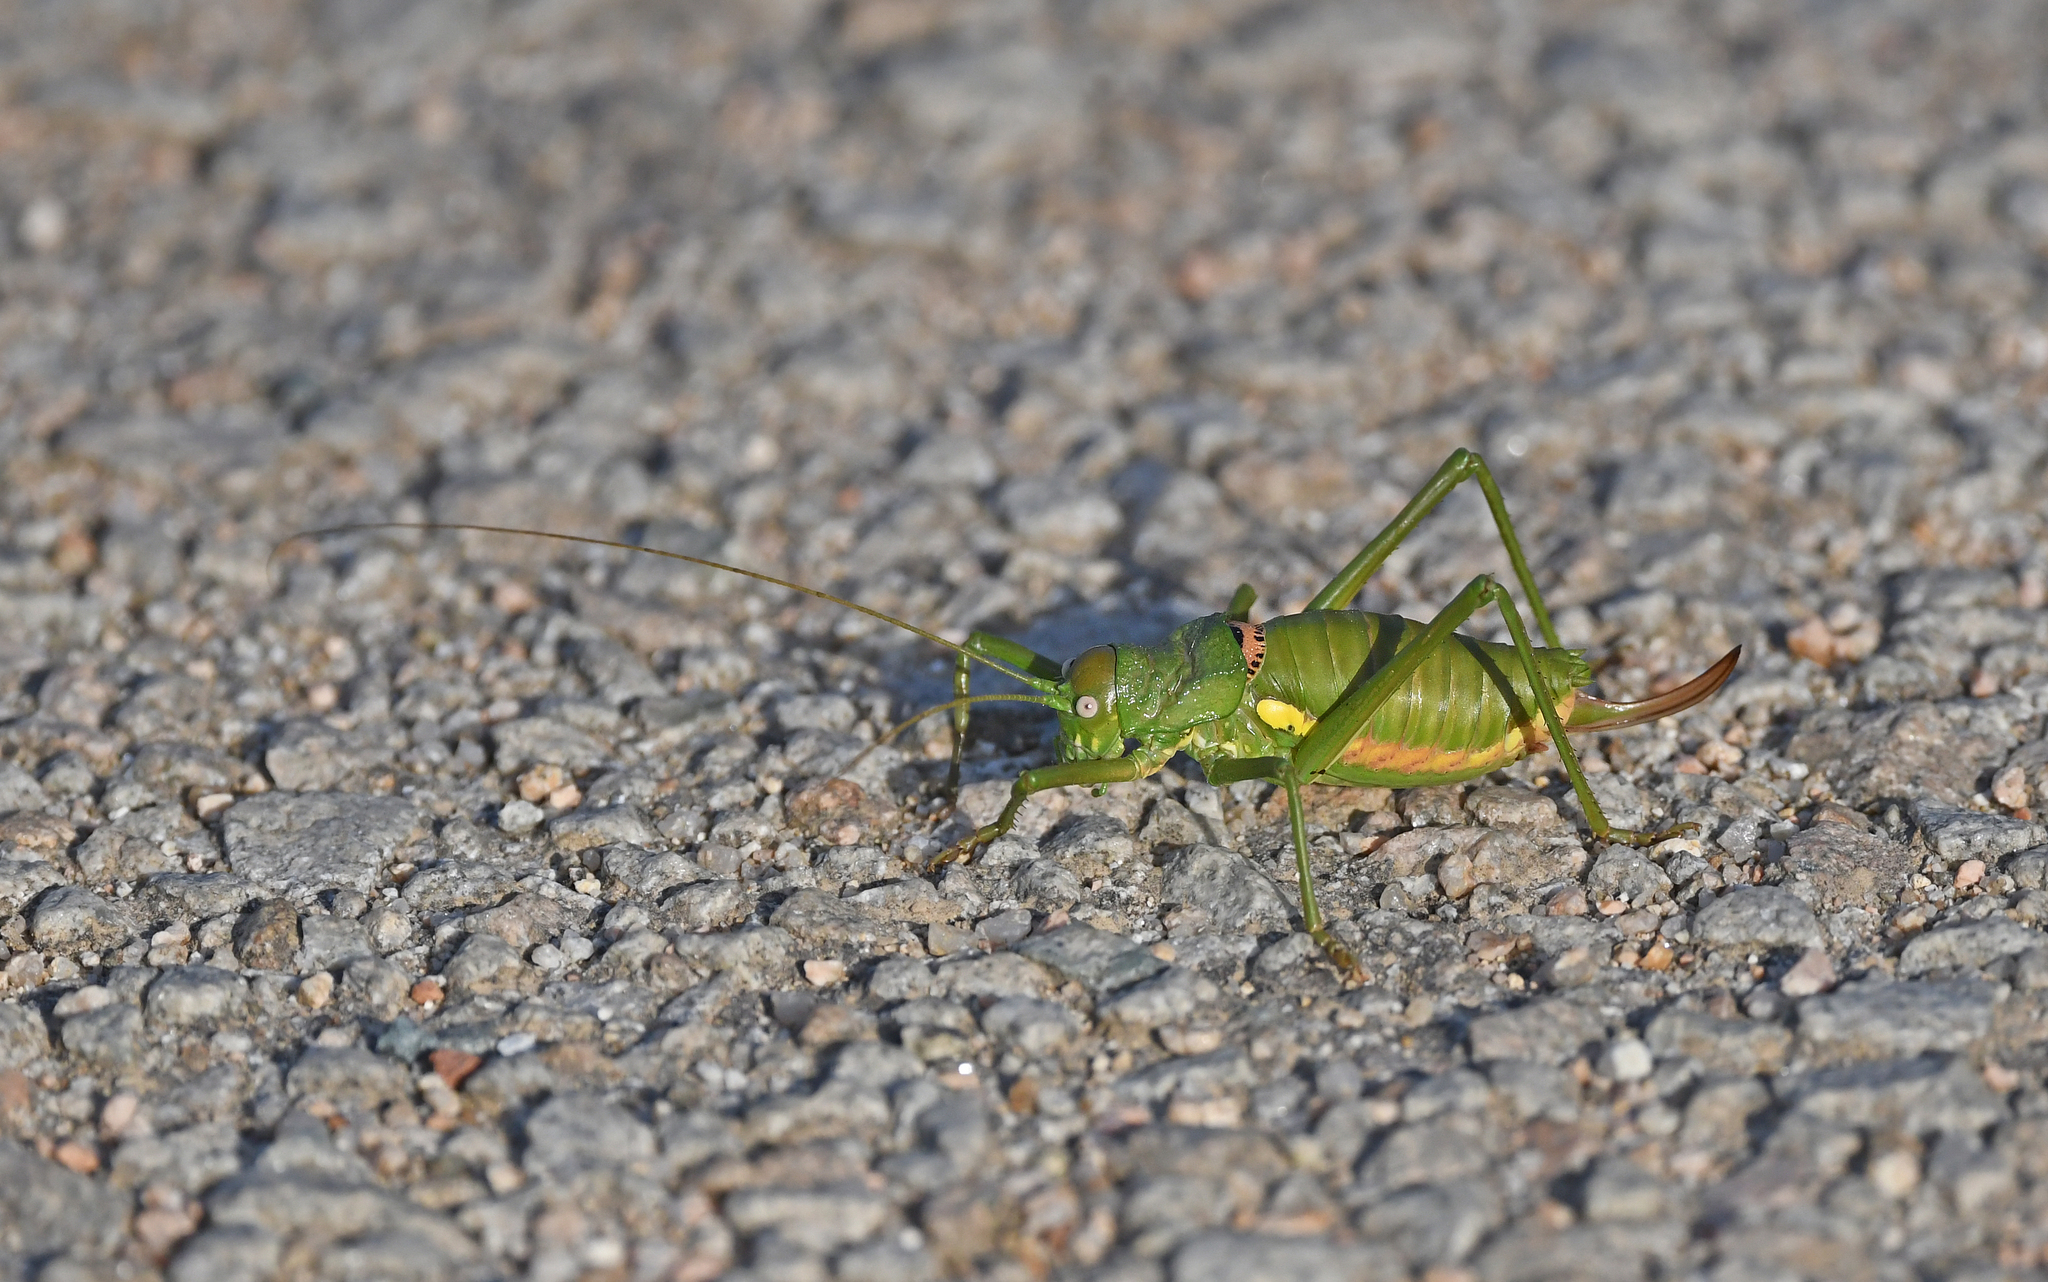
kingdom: Animalia
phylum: Arthropoda
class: Insecta
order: Orthoptera
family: Tettigoniidae
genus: Uromenus
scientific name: Uromenus brevicollis
